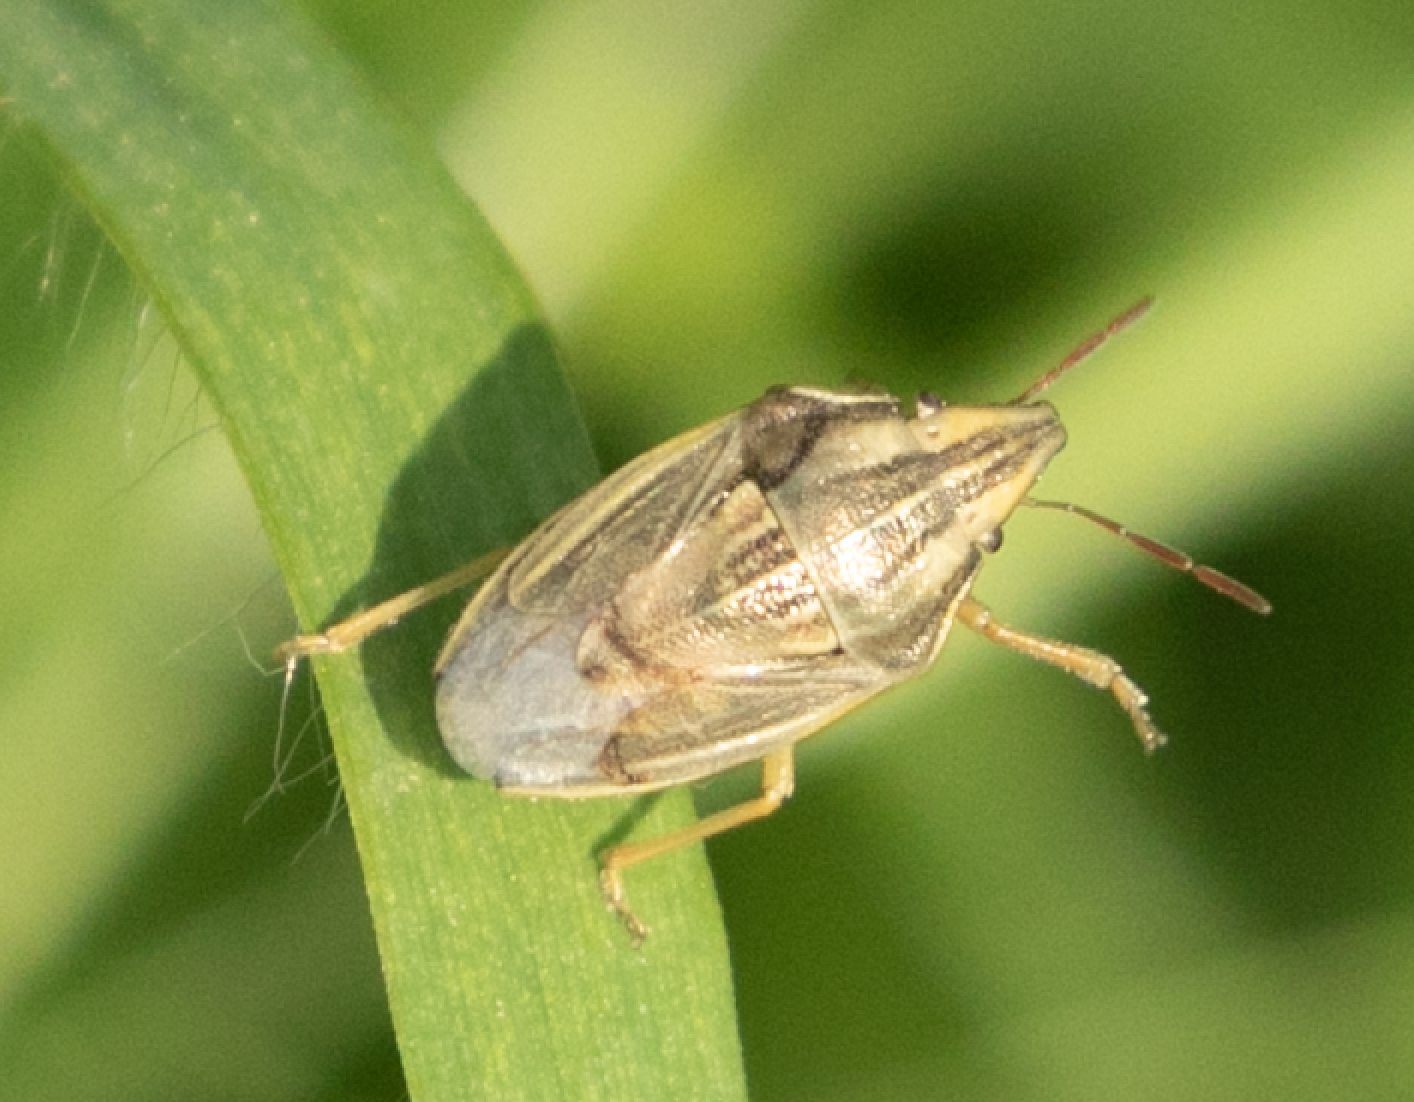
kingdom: Animalia
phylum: Arthropoda
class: Insecta
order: Hemiptera
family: Pentatomidae
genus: Aelia
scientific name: Aelia acuminata
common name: Bishop's mitre
